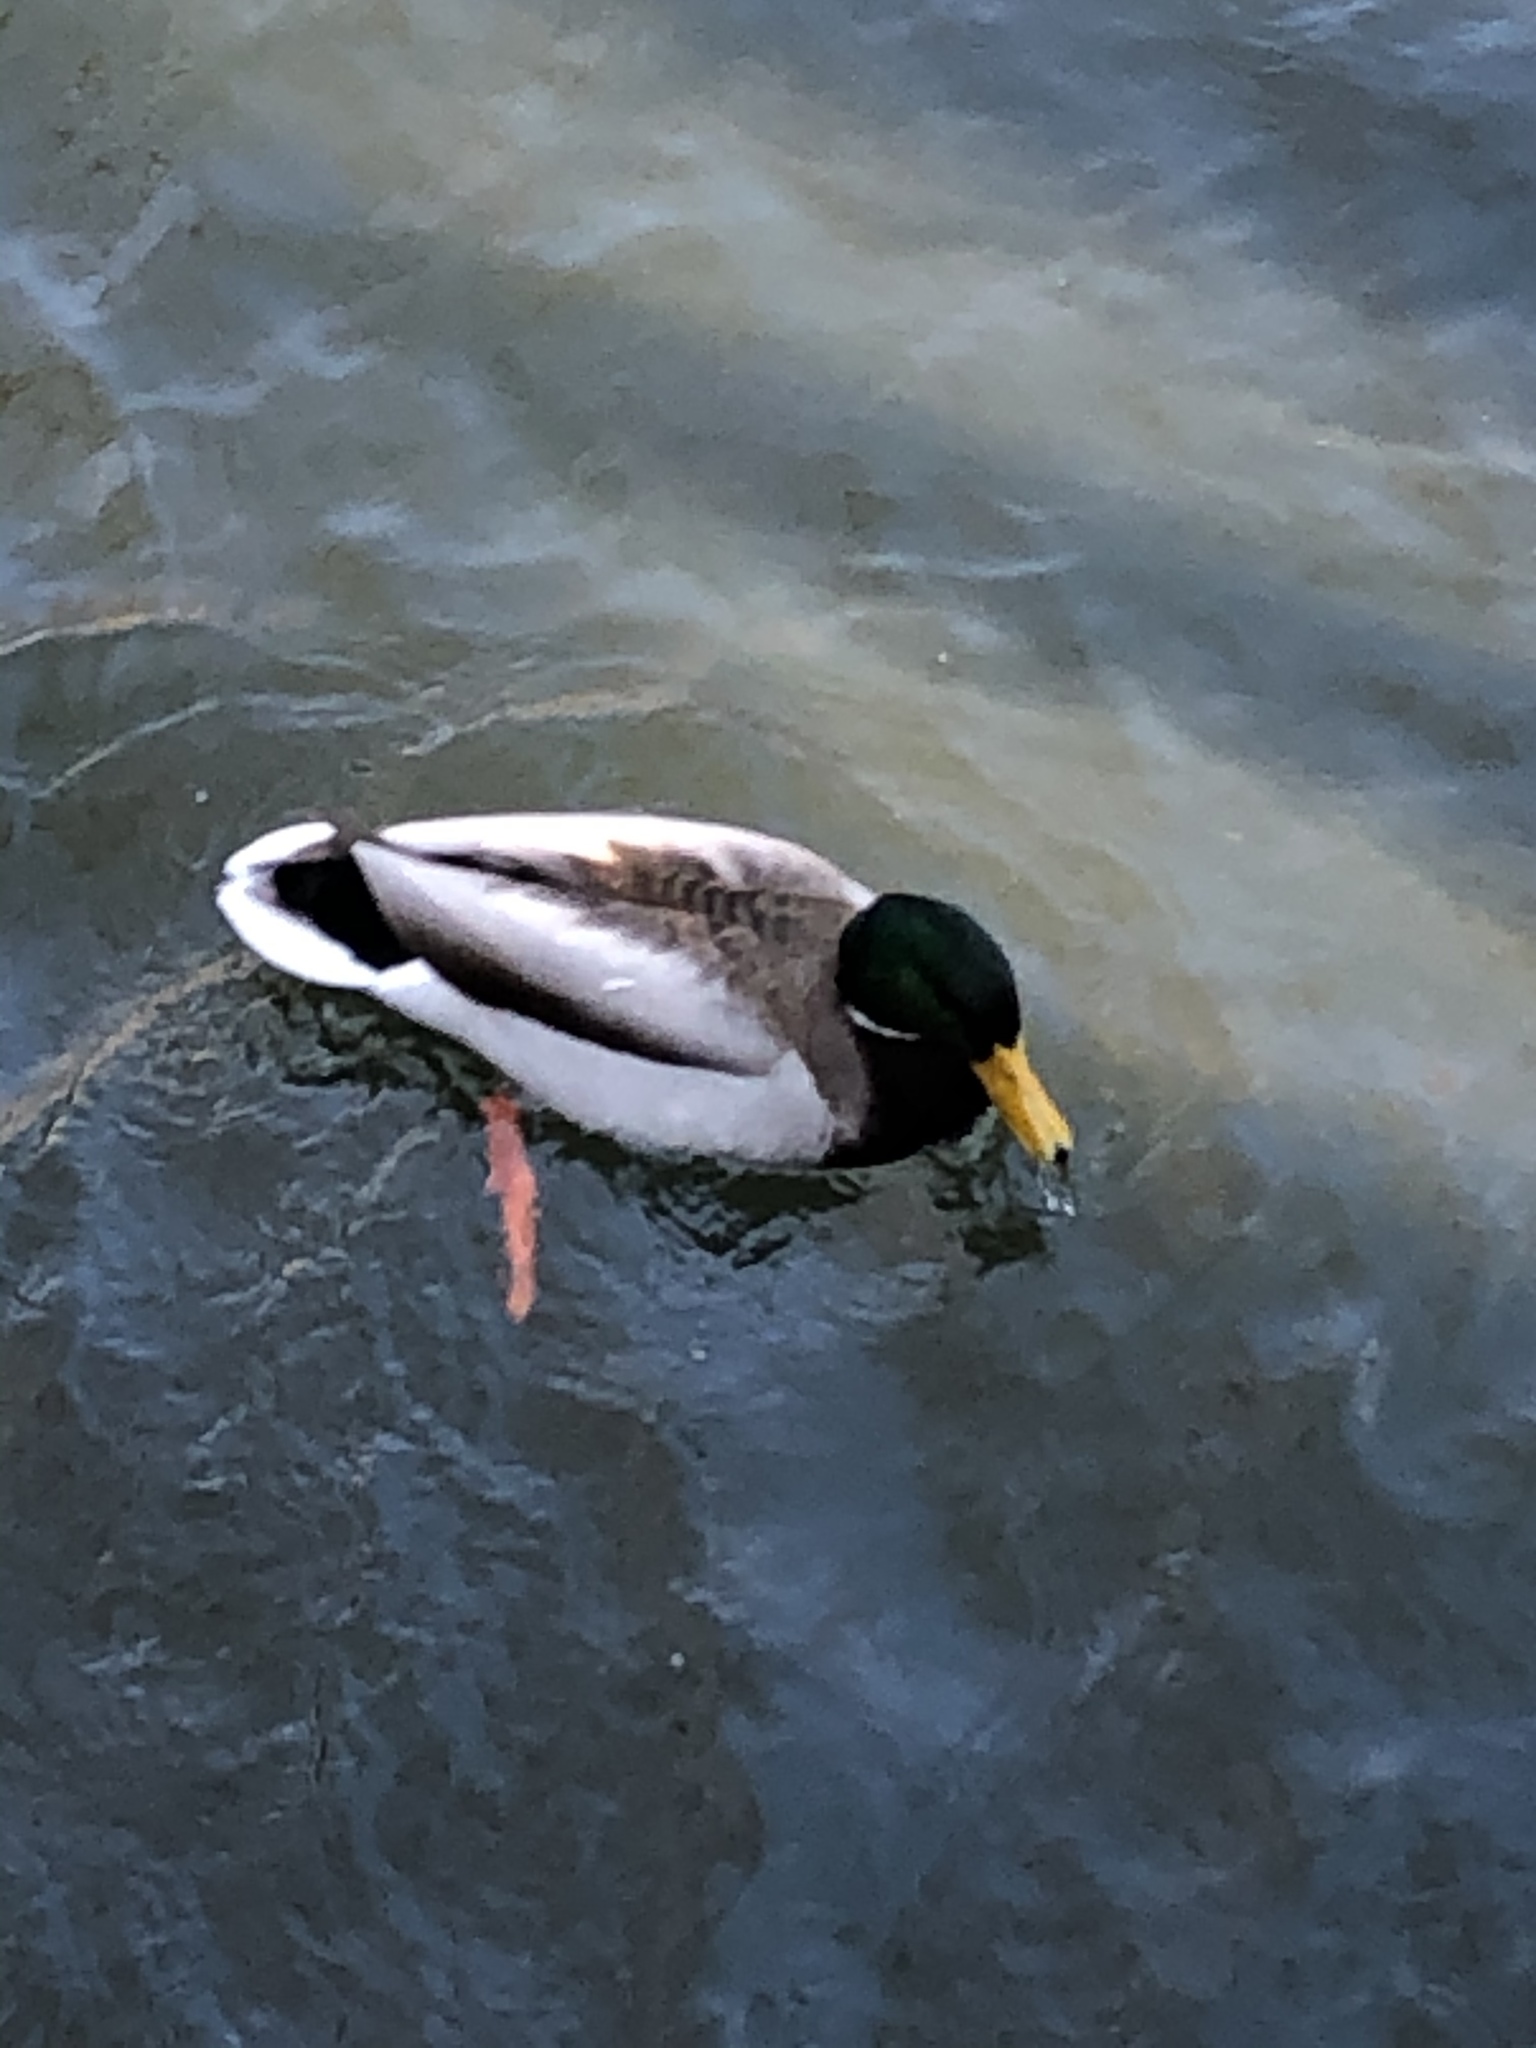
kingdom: Animalia
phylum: Chordata
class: Aves
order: Anseriformes
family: Anatidae
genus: Anas
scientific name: Anas platyrhynchos
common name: Mallard
